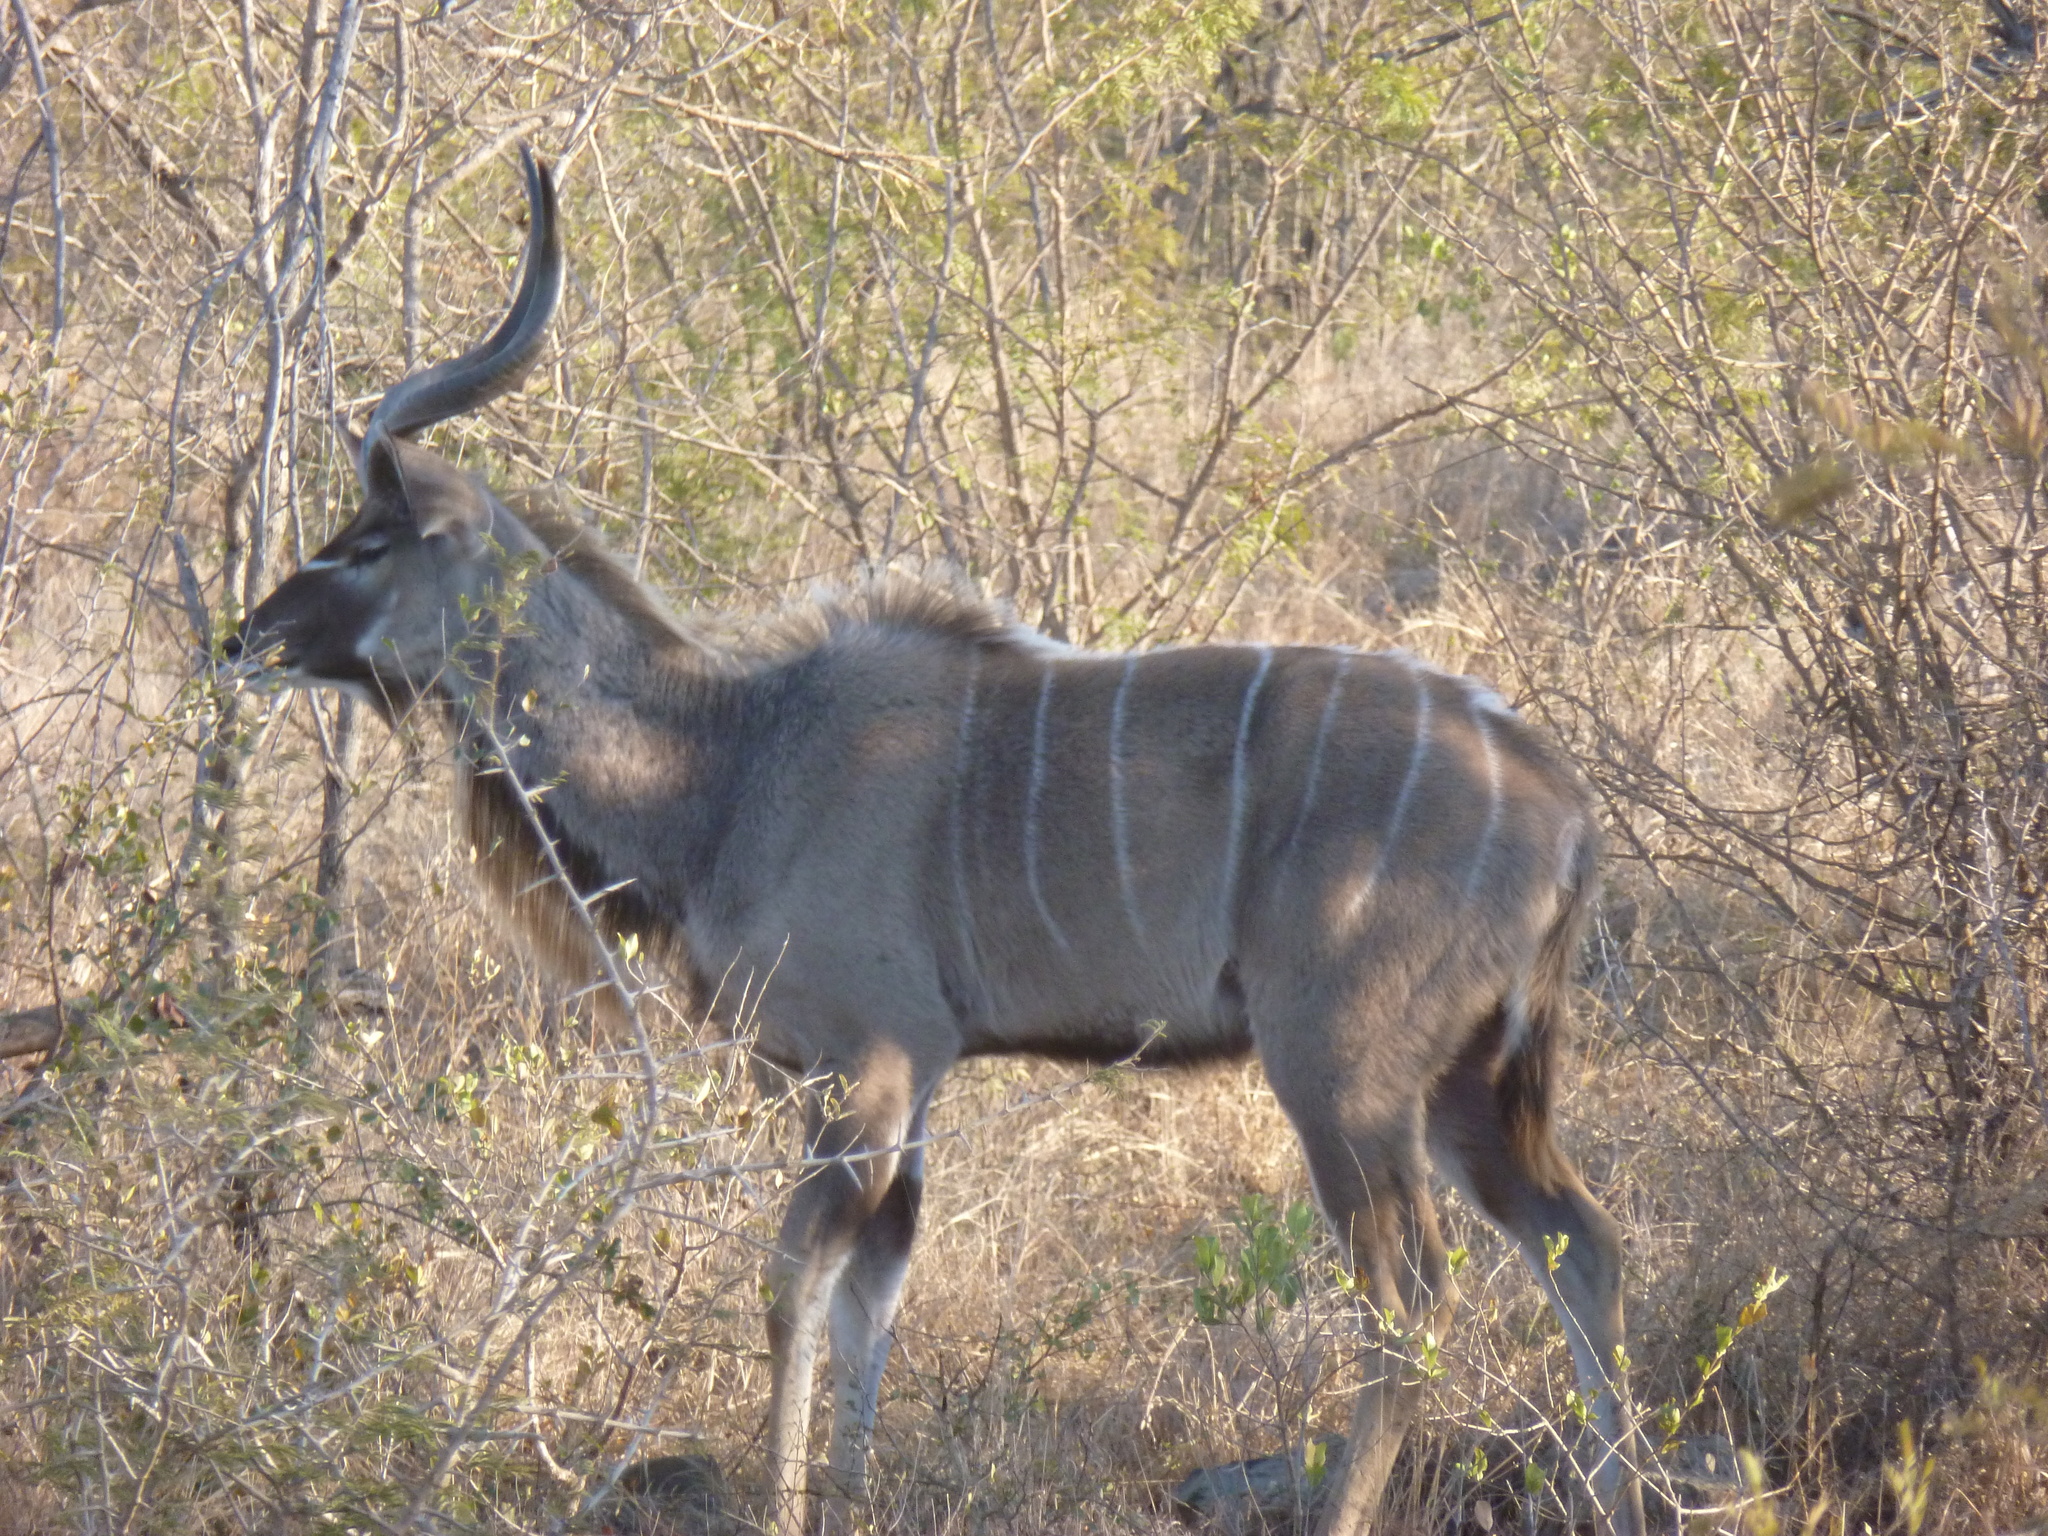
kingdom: Animalia
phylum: Chordata
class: Mammalia
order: Artiodactyla
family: Bovidae
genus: Tragelaphus
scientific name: Tragelaphus strepsiceros
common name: Greater kudu
